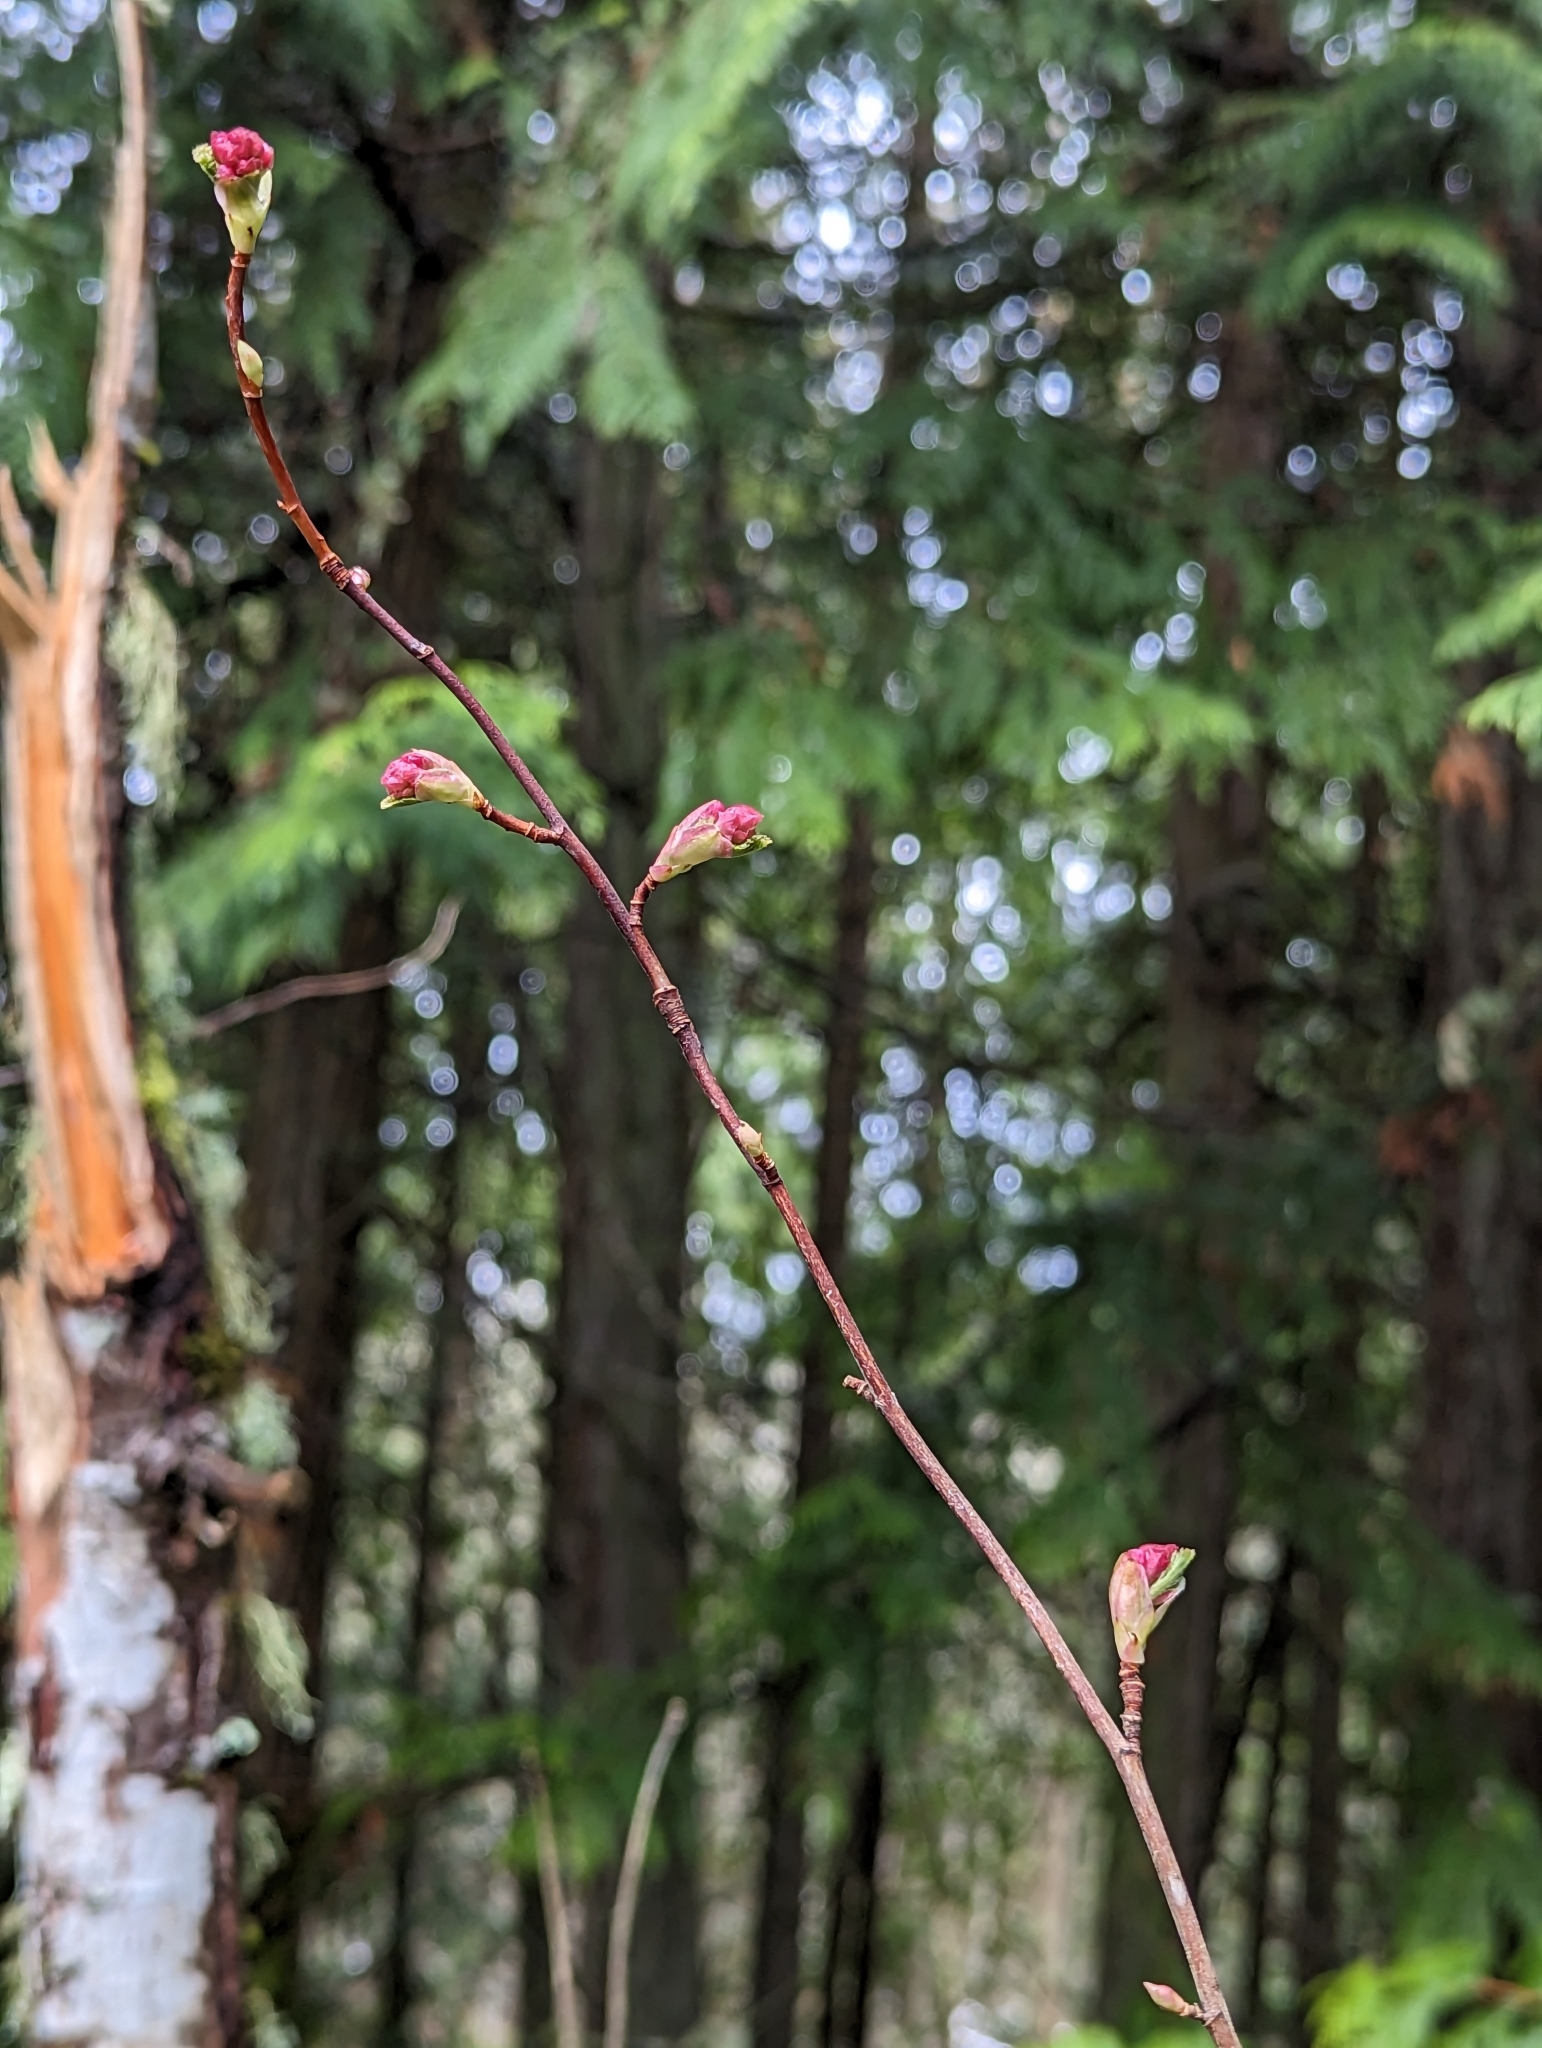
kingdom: Plantae
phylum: Tracheophyta
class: Magnoliopsida
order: Saxifragales
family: Grossulariaceae
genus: Ribes
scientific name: Ribes sanguineum
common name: Flowering currant
